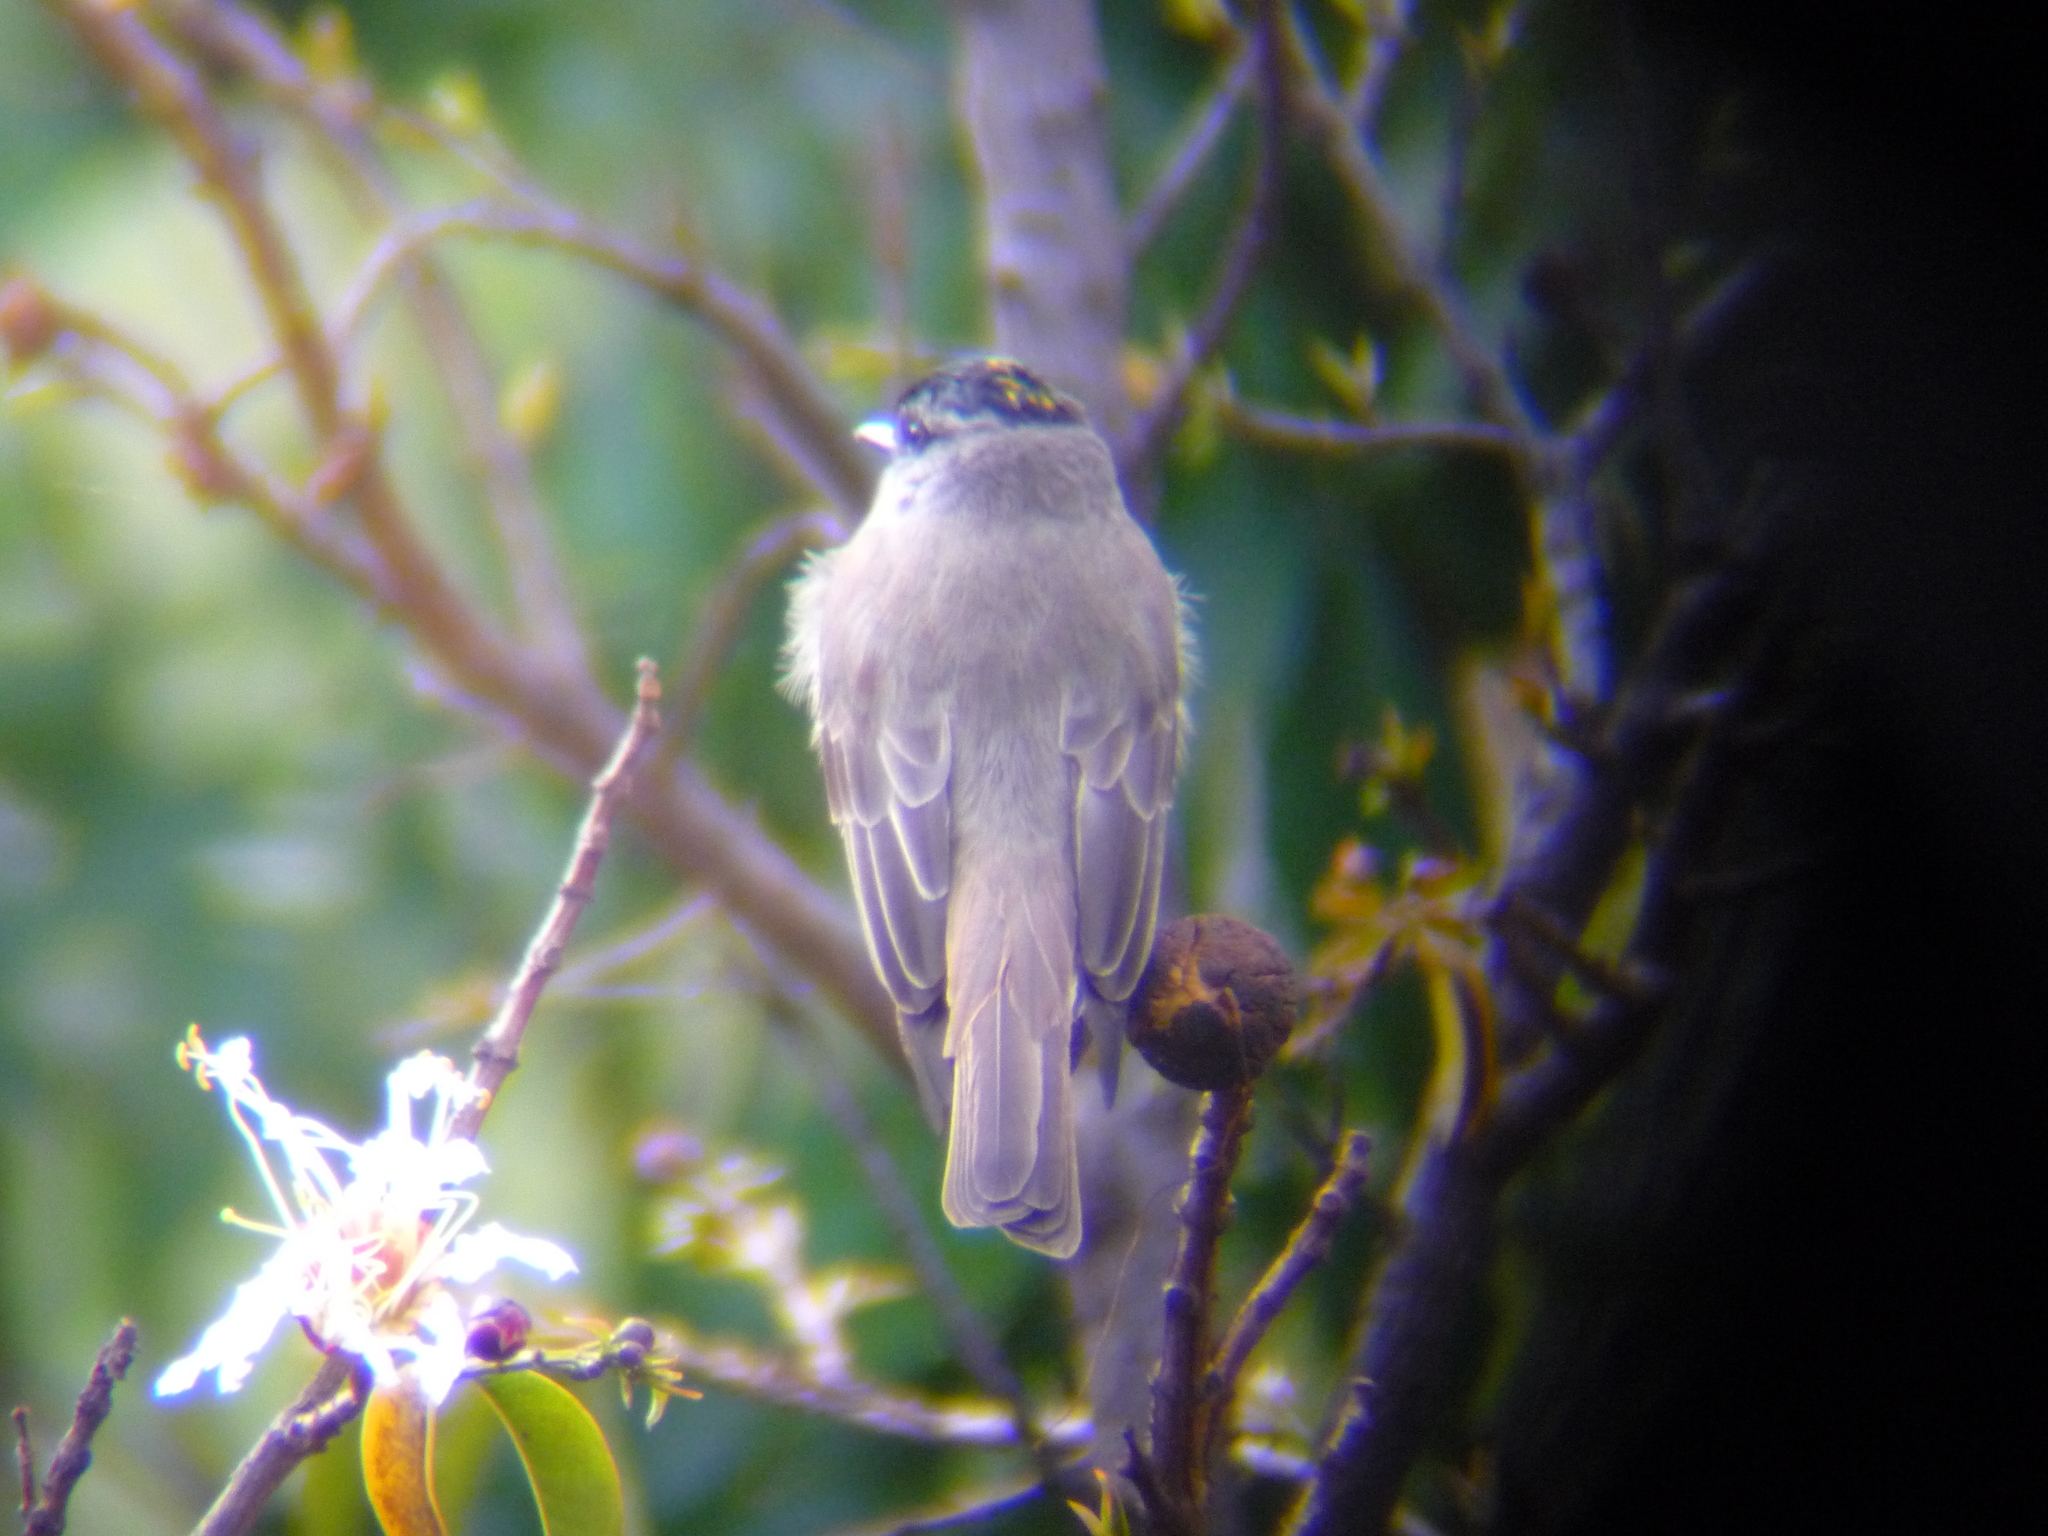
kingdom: Animalia
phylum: Chordata
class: Aves
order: Passeriformes
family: Tyrannidae
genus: Empidonomus
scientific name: Empidonomus aurantioatrocristatus
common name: Crowned slaty flycatcher
